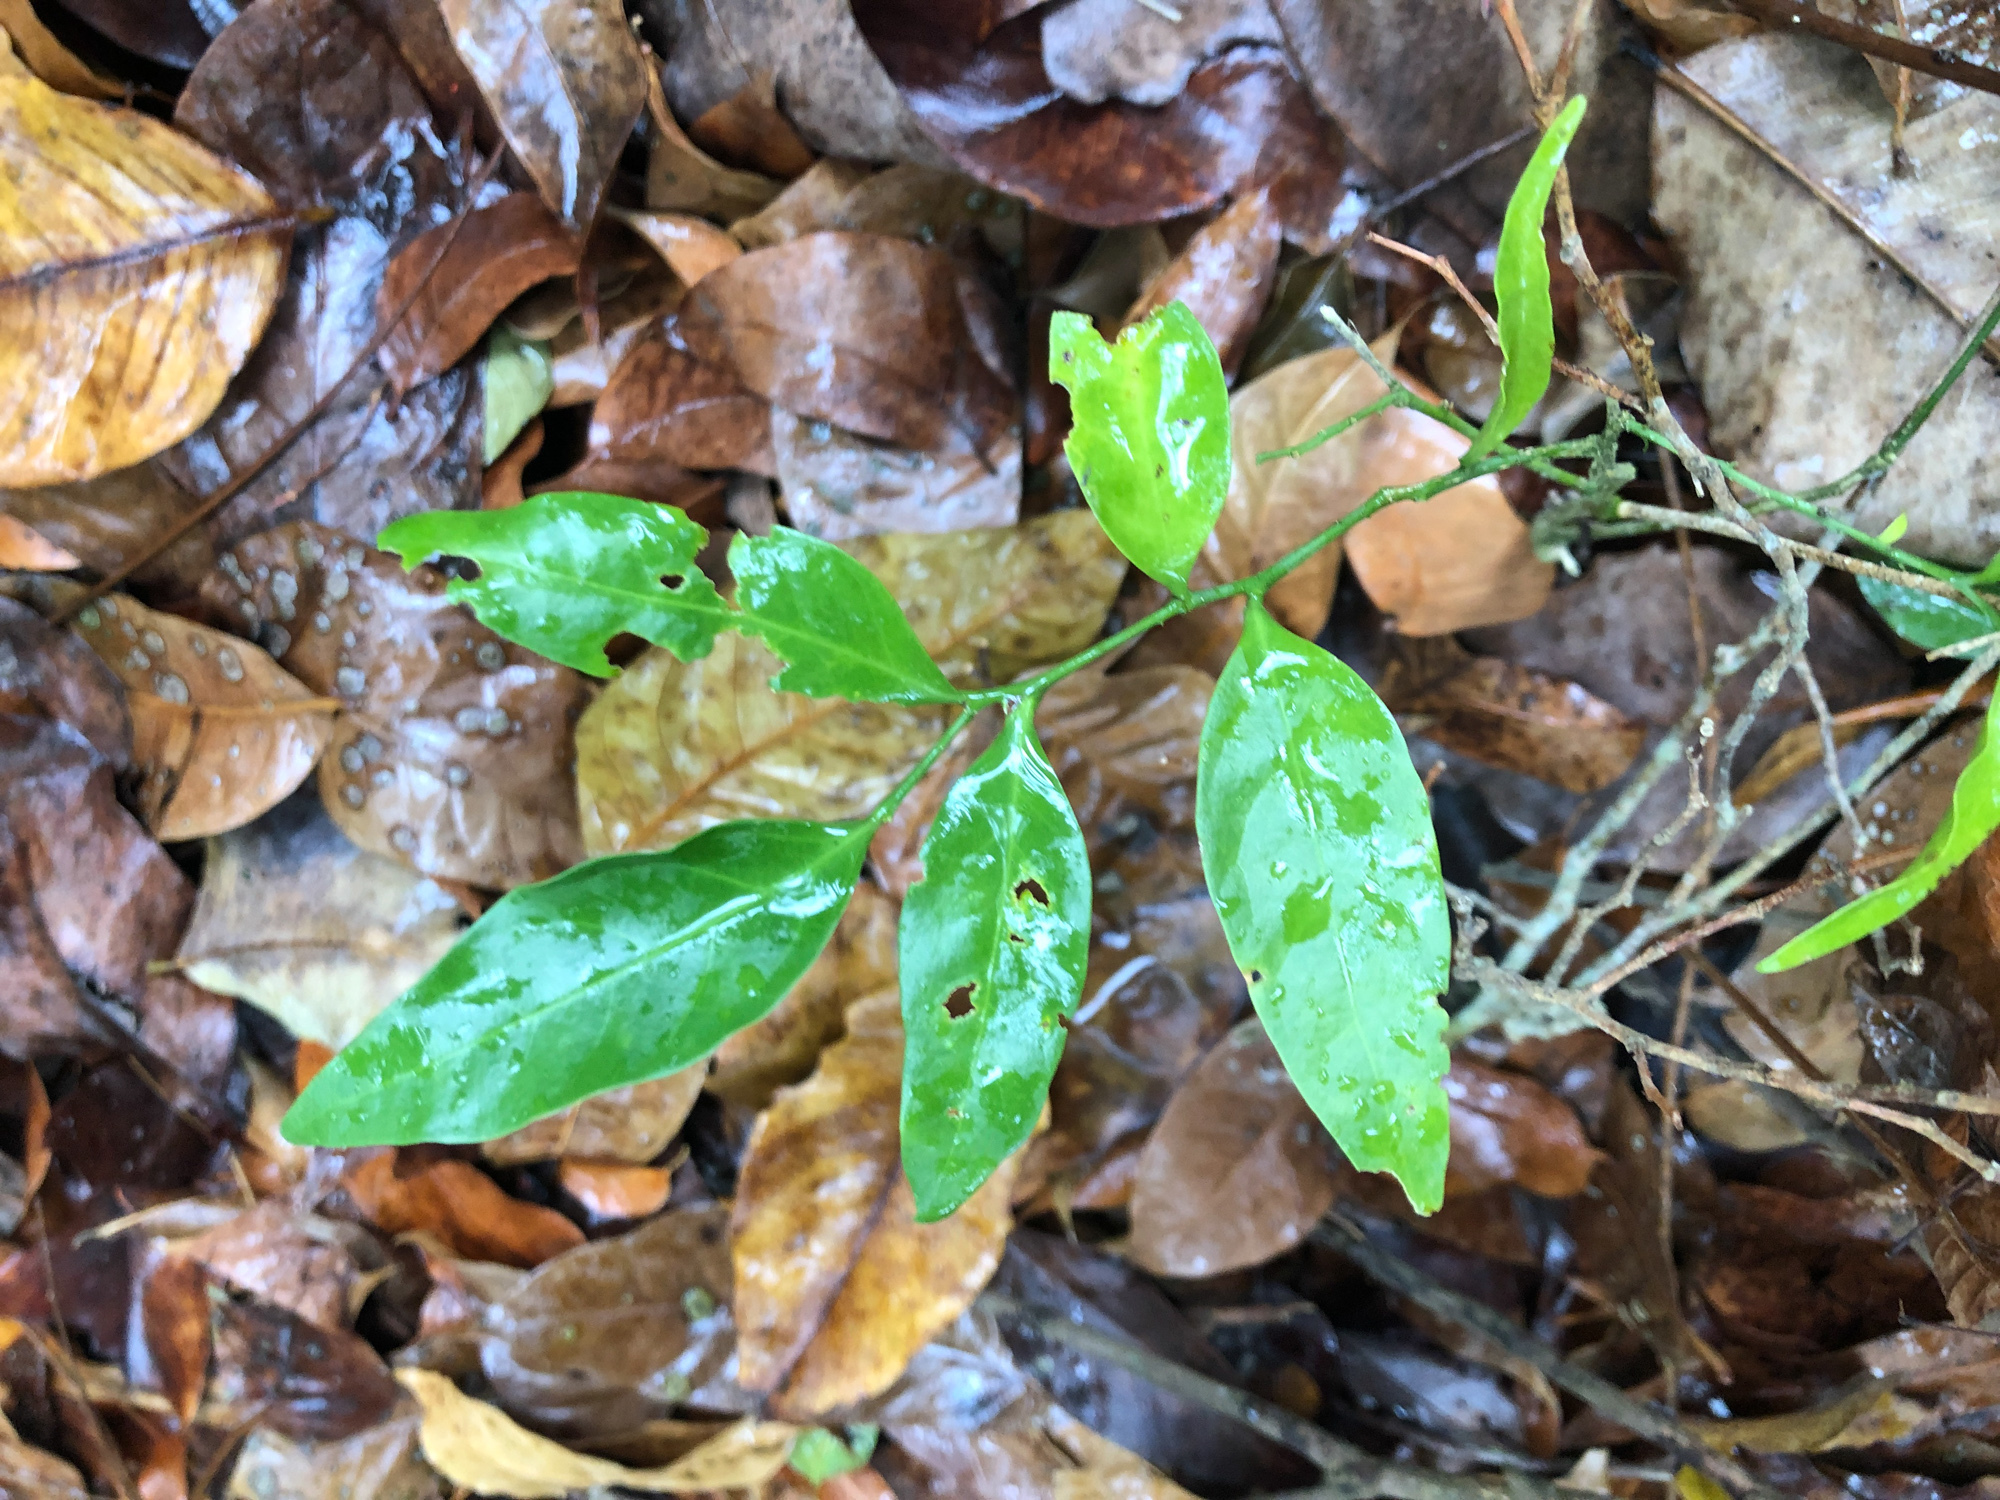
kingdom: Plantae
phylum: Tracheophyta
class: Magnoliopsida
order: Santalales
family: Opiliaceae
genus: Champereia
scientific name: Champereia manillana
